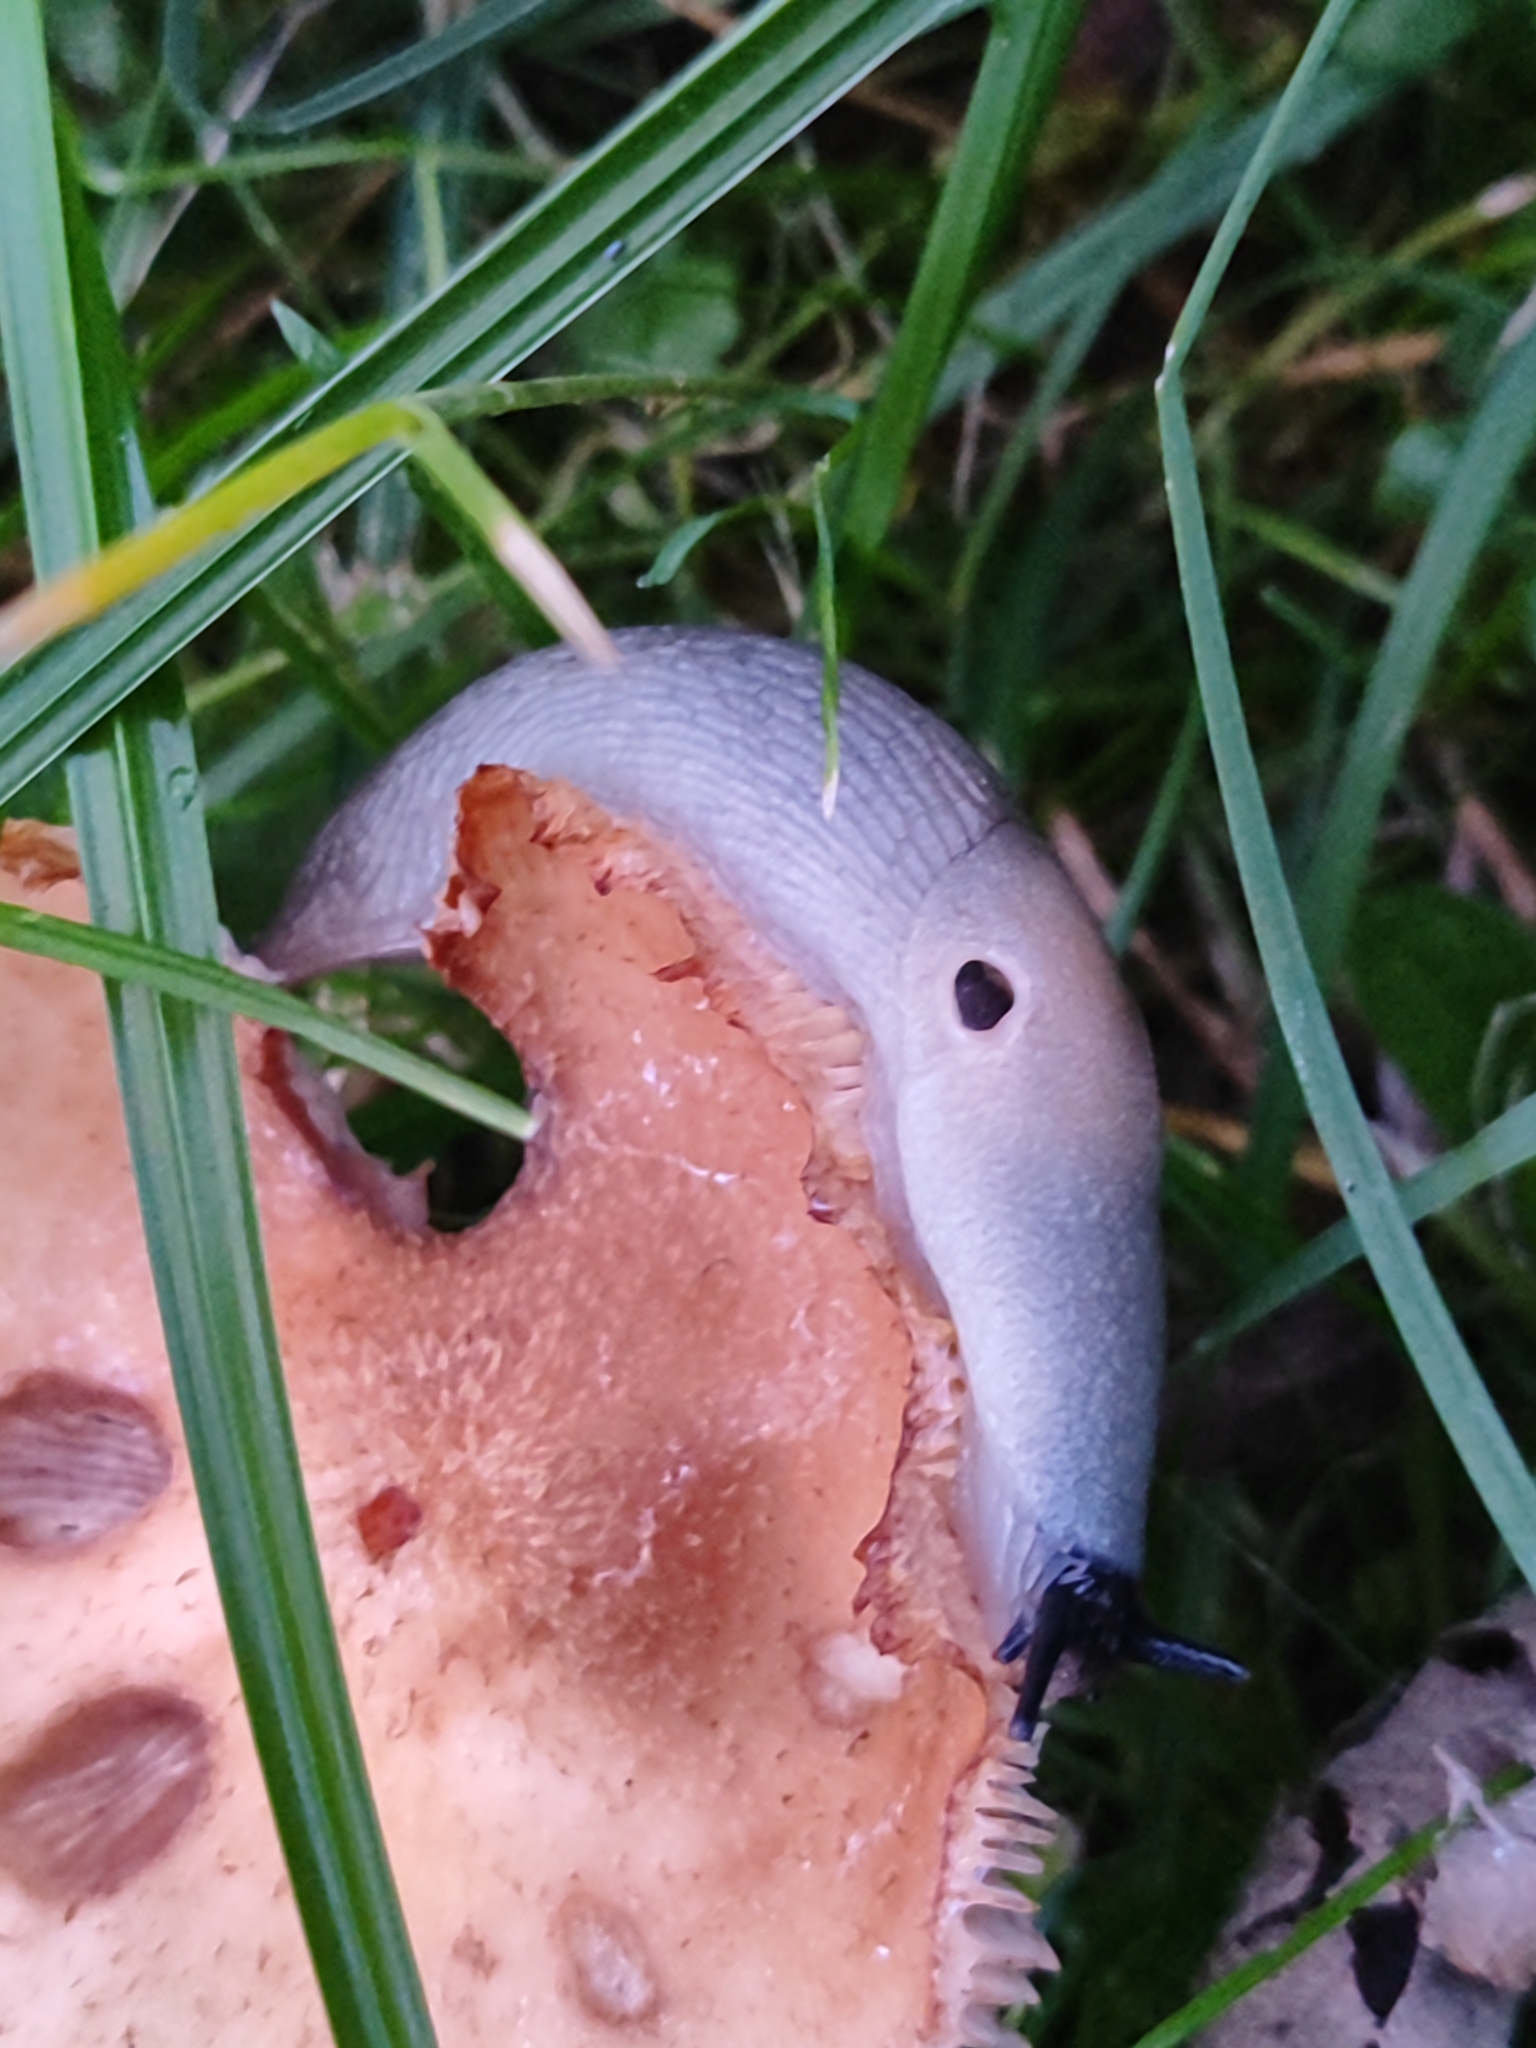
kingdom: Animalia
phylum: Mollusca
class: Gastropoda
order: Stylommatophora
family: Agriolimacidae
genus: Krynickillus
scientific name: Krynickillus melanocephalus
